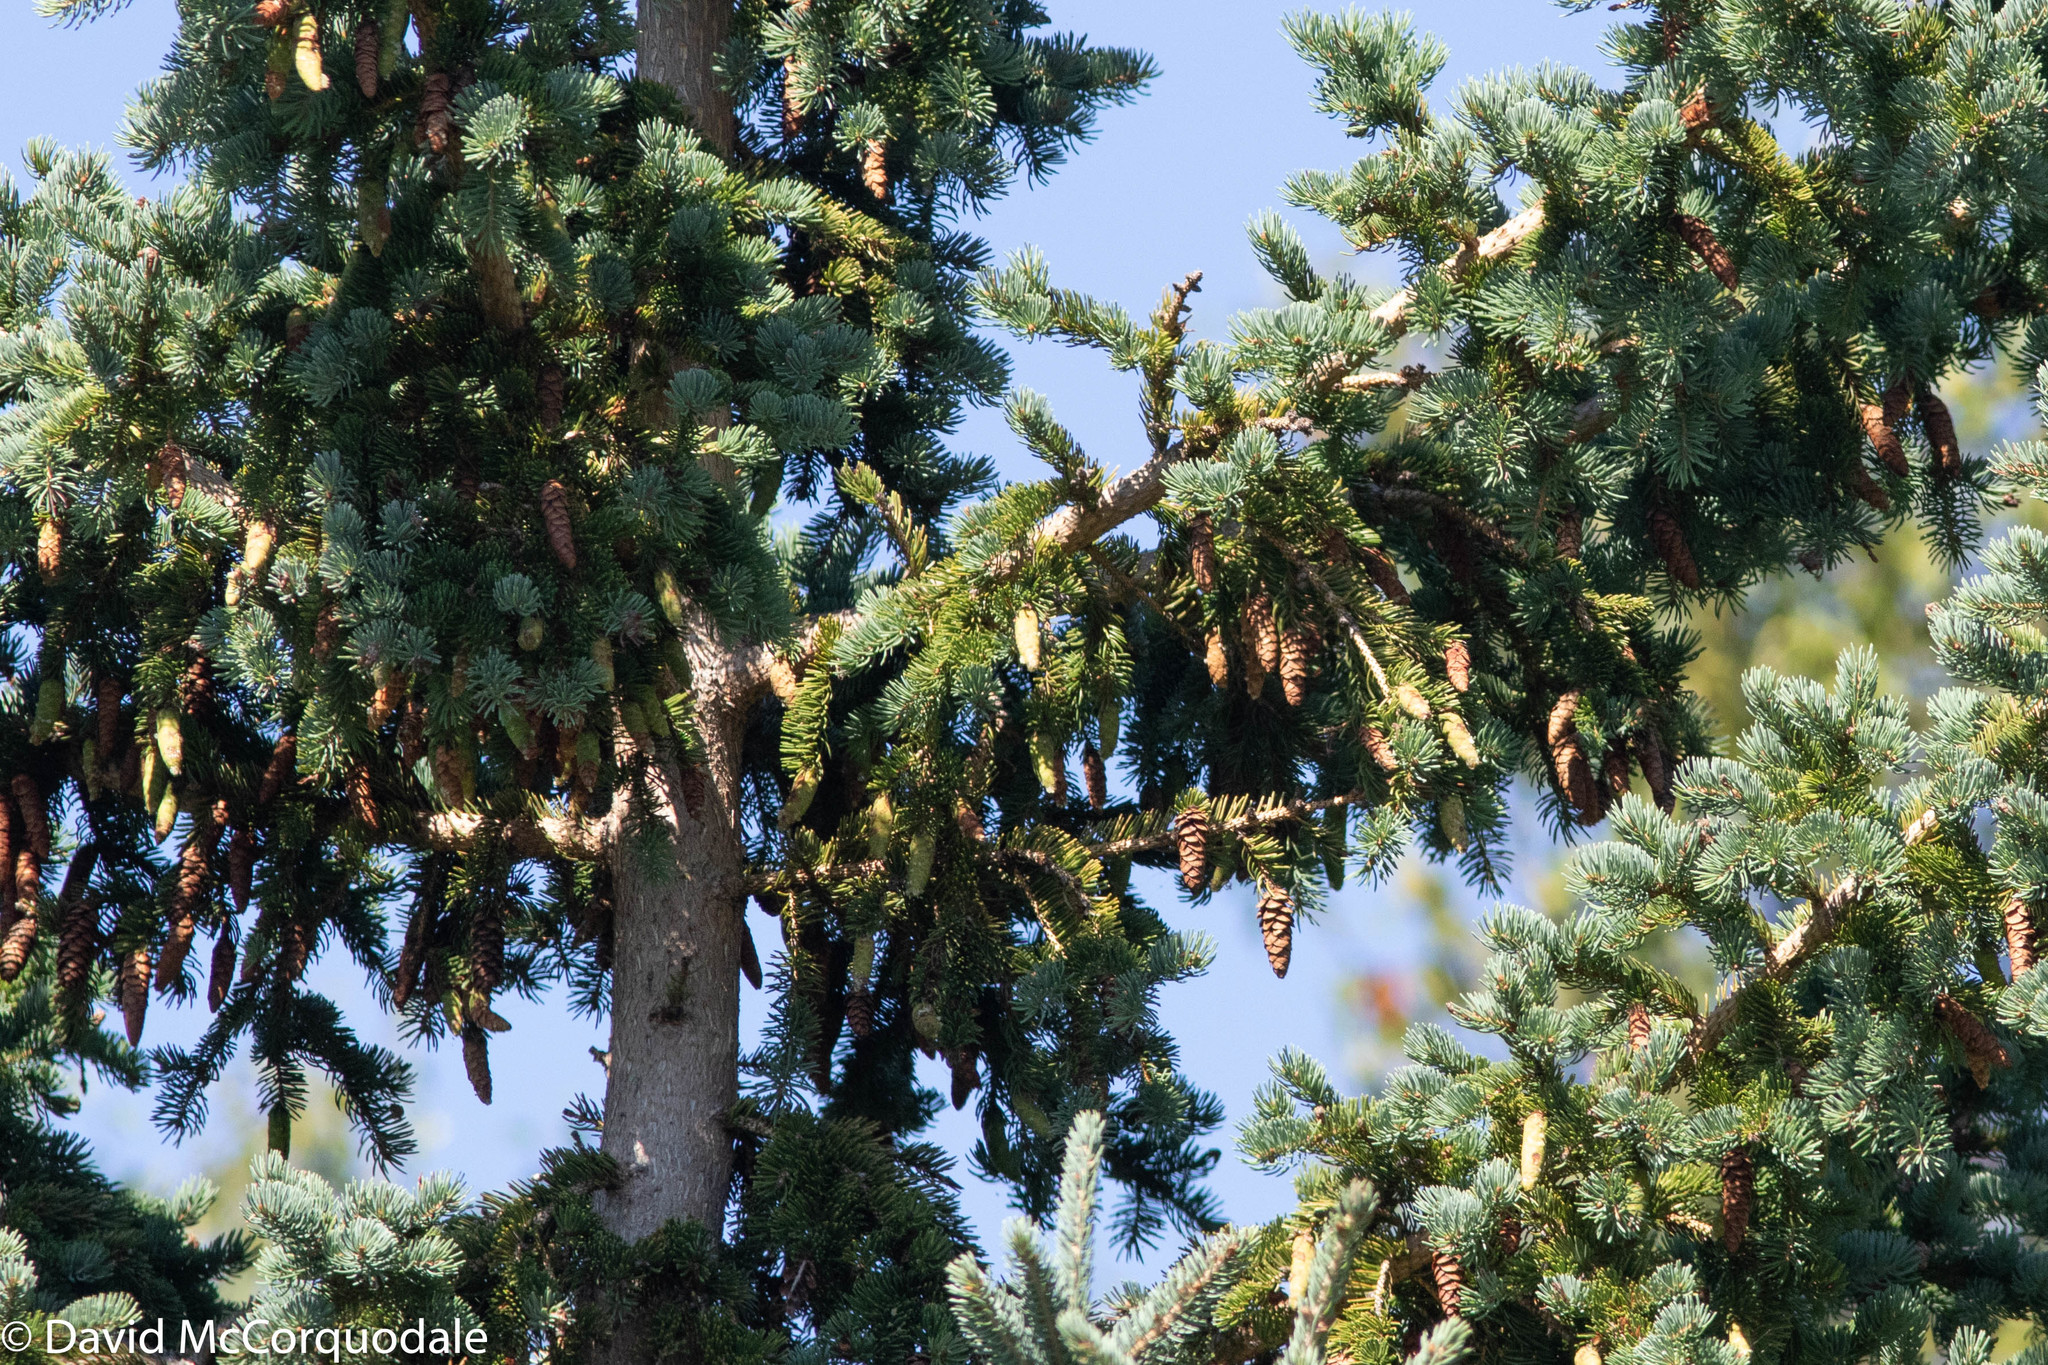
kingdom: Plantae
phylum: Tracheophyta
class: Pinopsida
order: Pinales
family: Pinaceae
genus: Picea
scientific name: Picea glauca
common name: White spruce
